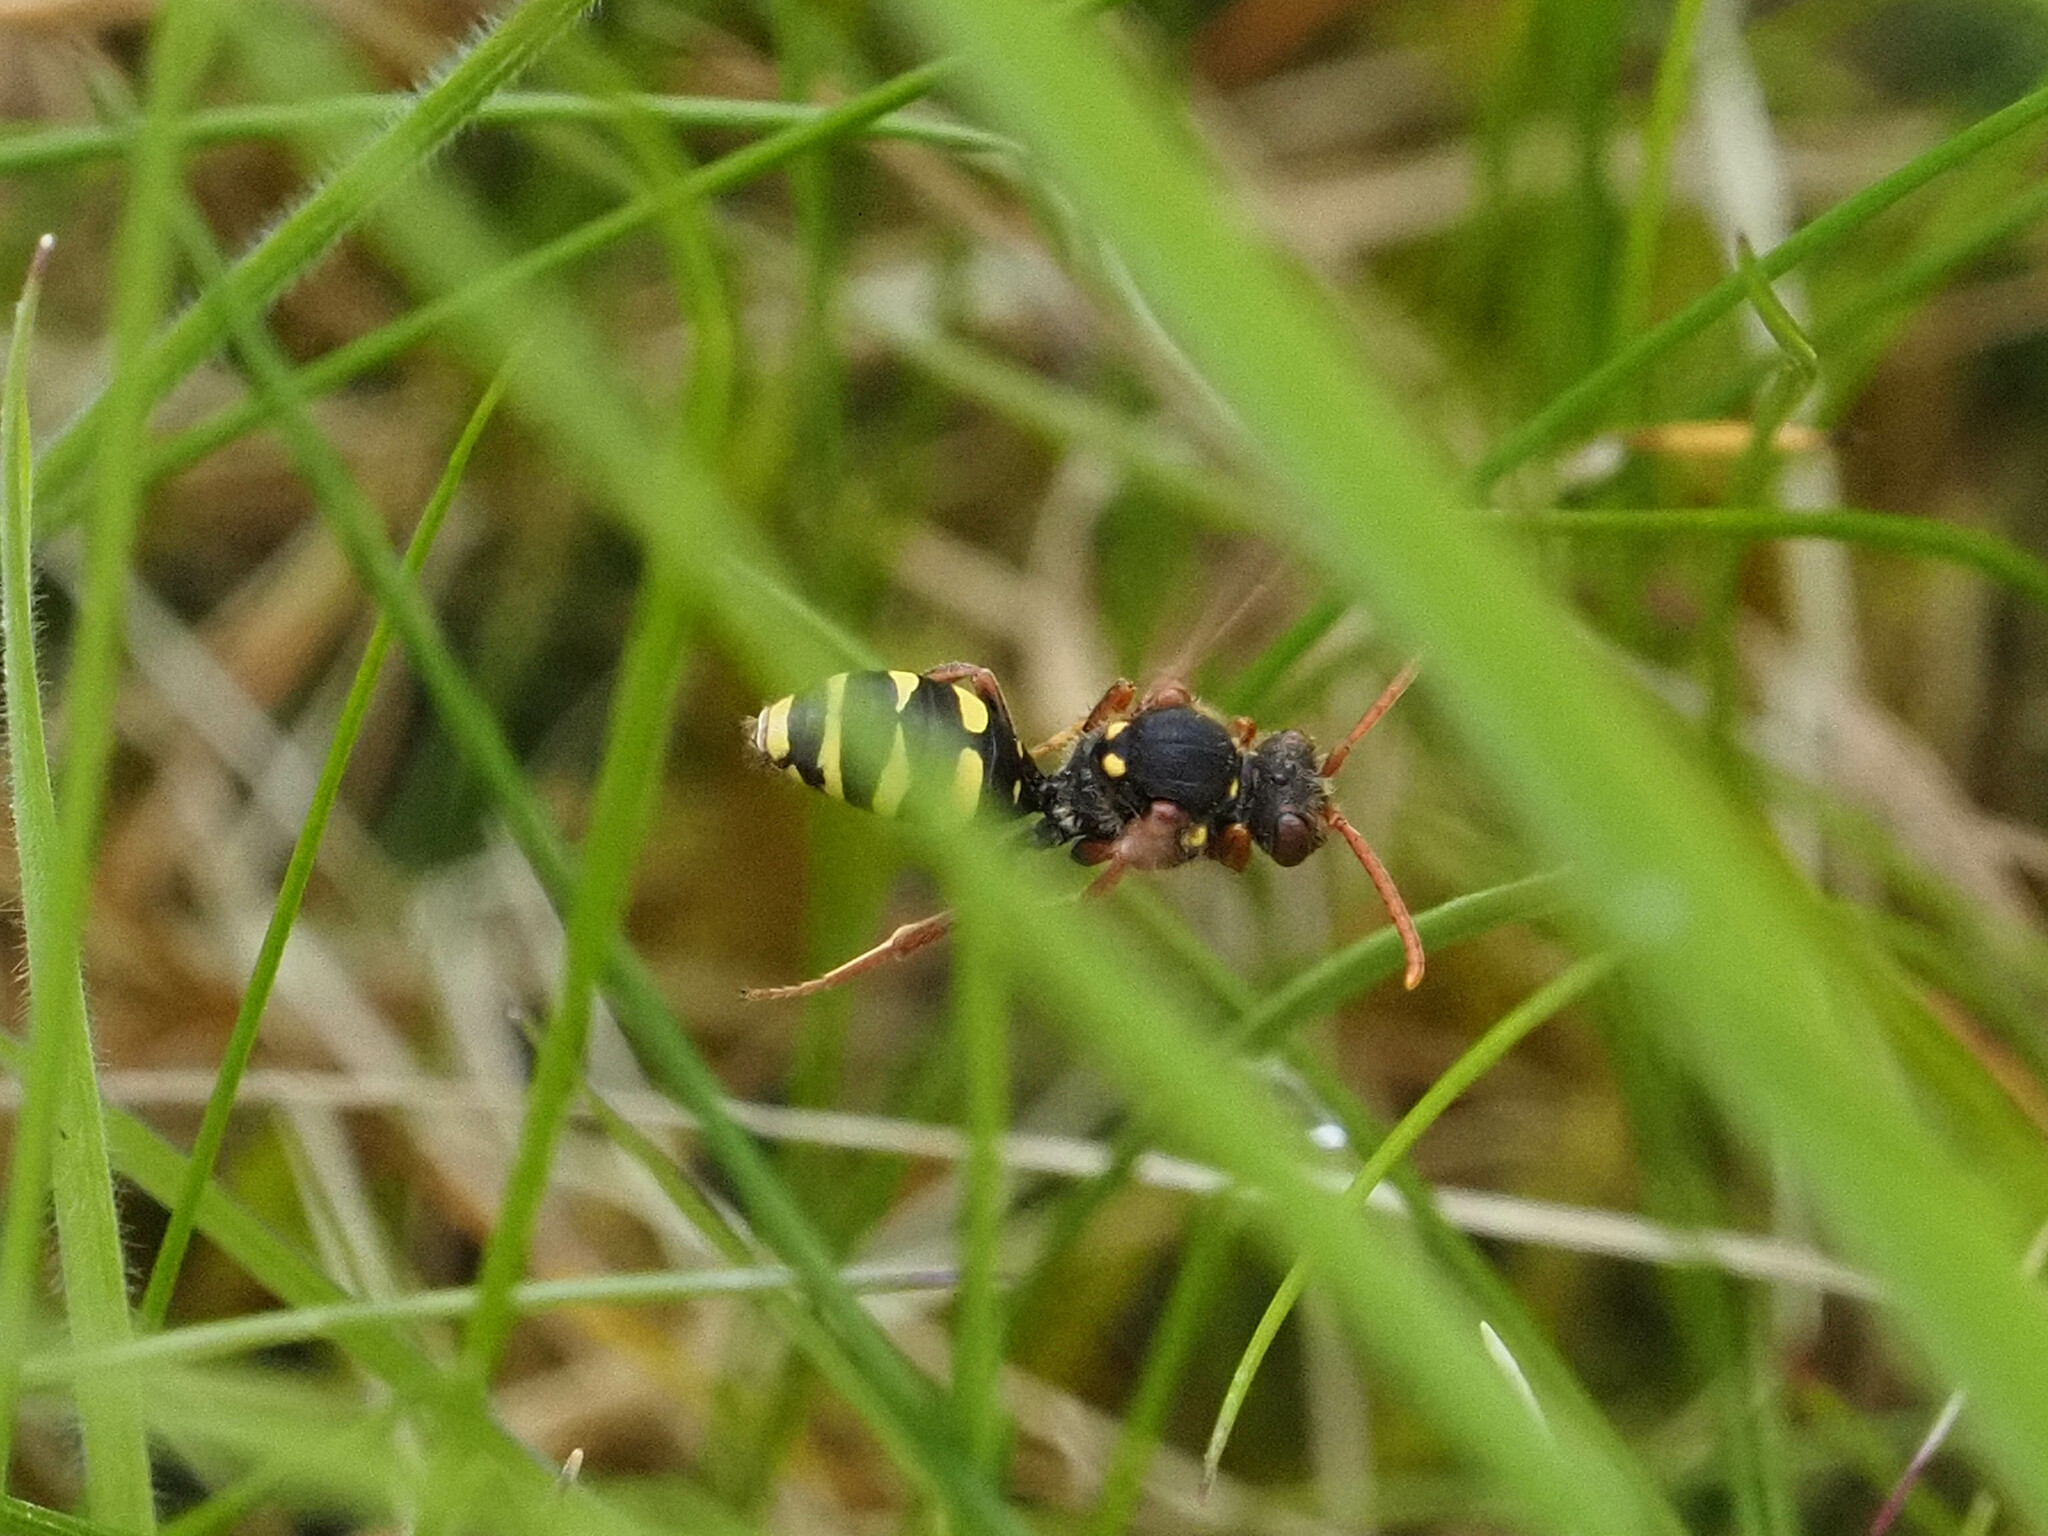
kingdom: Animalia
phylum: Arthropoda
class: Insecta
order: Hymenoptera
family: Apidae
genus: Nomada
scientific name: Nomada marshamella
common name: Marsham's nomad bee
